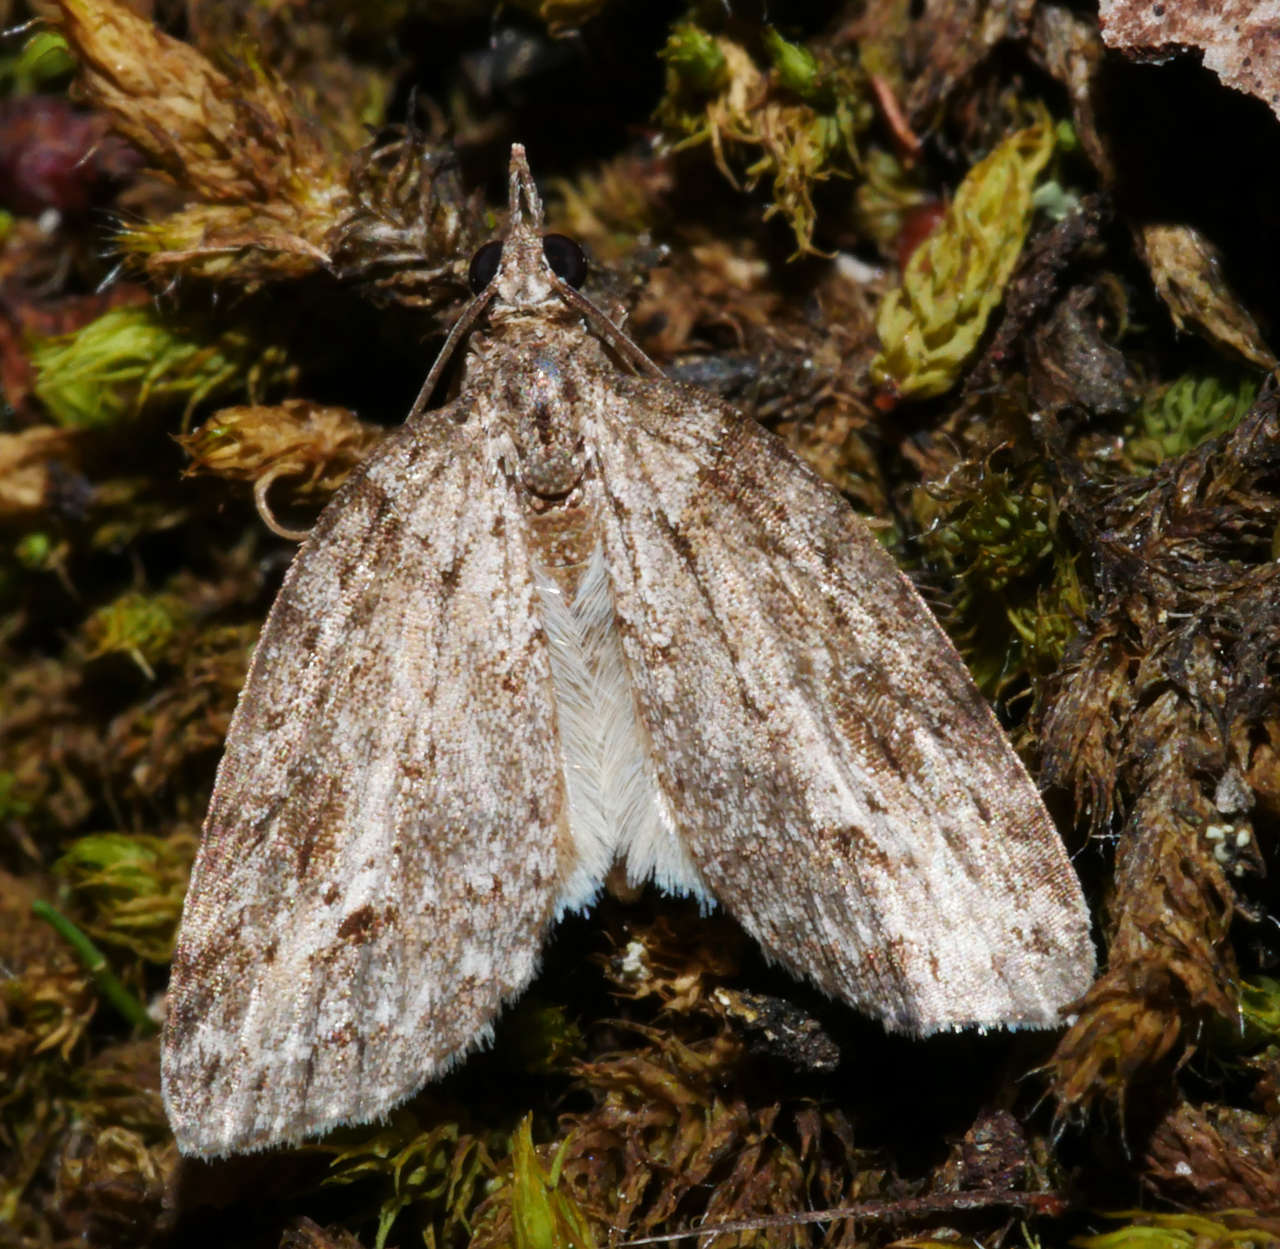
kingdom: Animalia
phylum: Arthropoda
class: Insecta
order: Lepidoptera
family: Geometridae
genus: Microdes
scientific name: Microdes villosata
